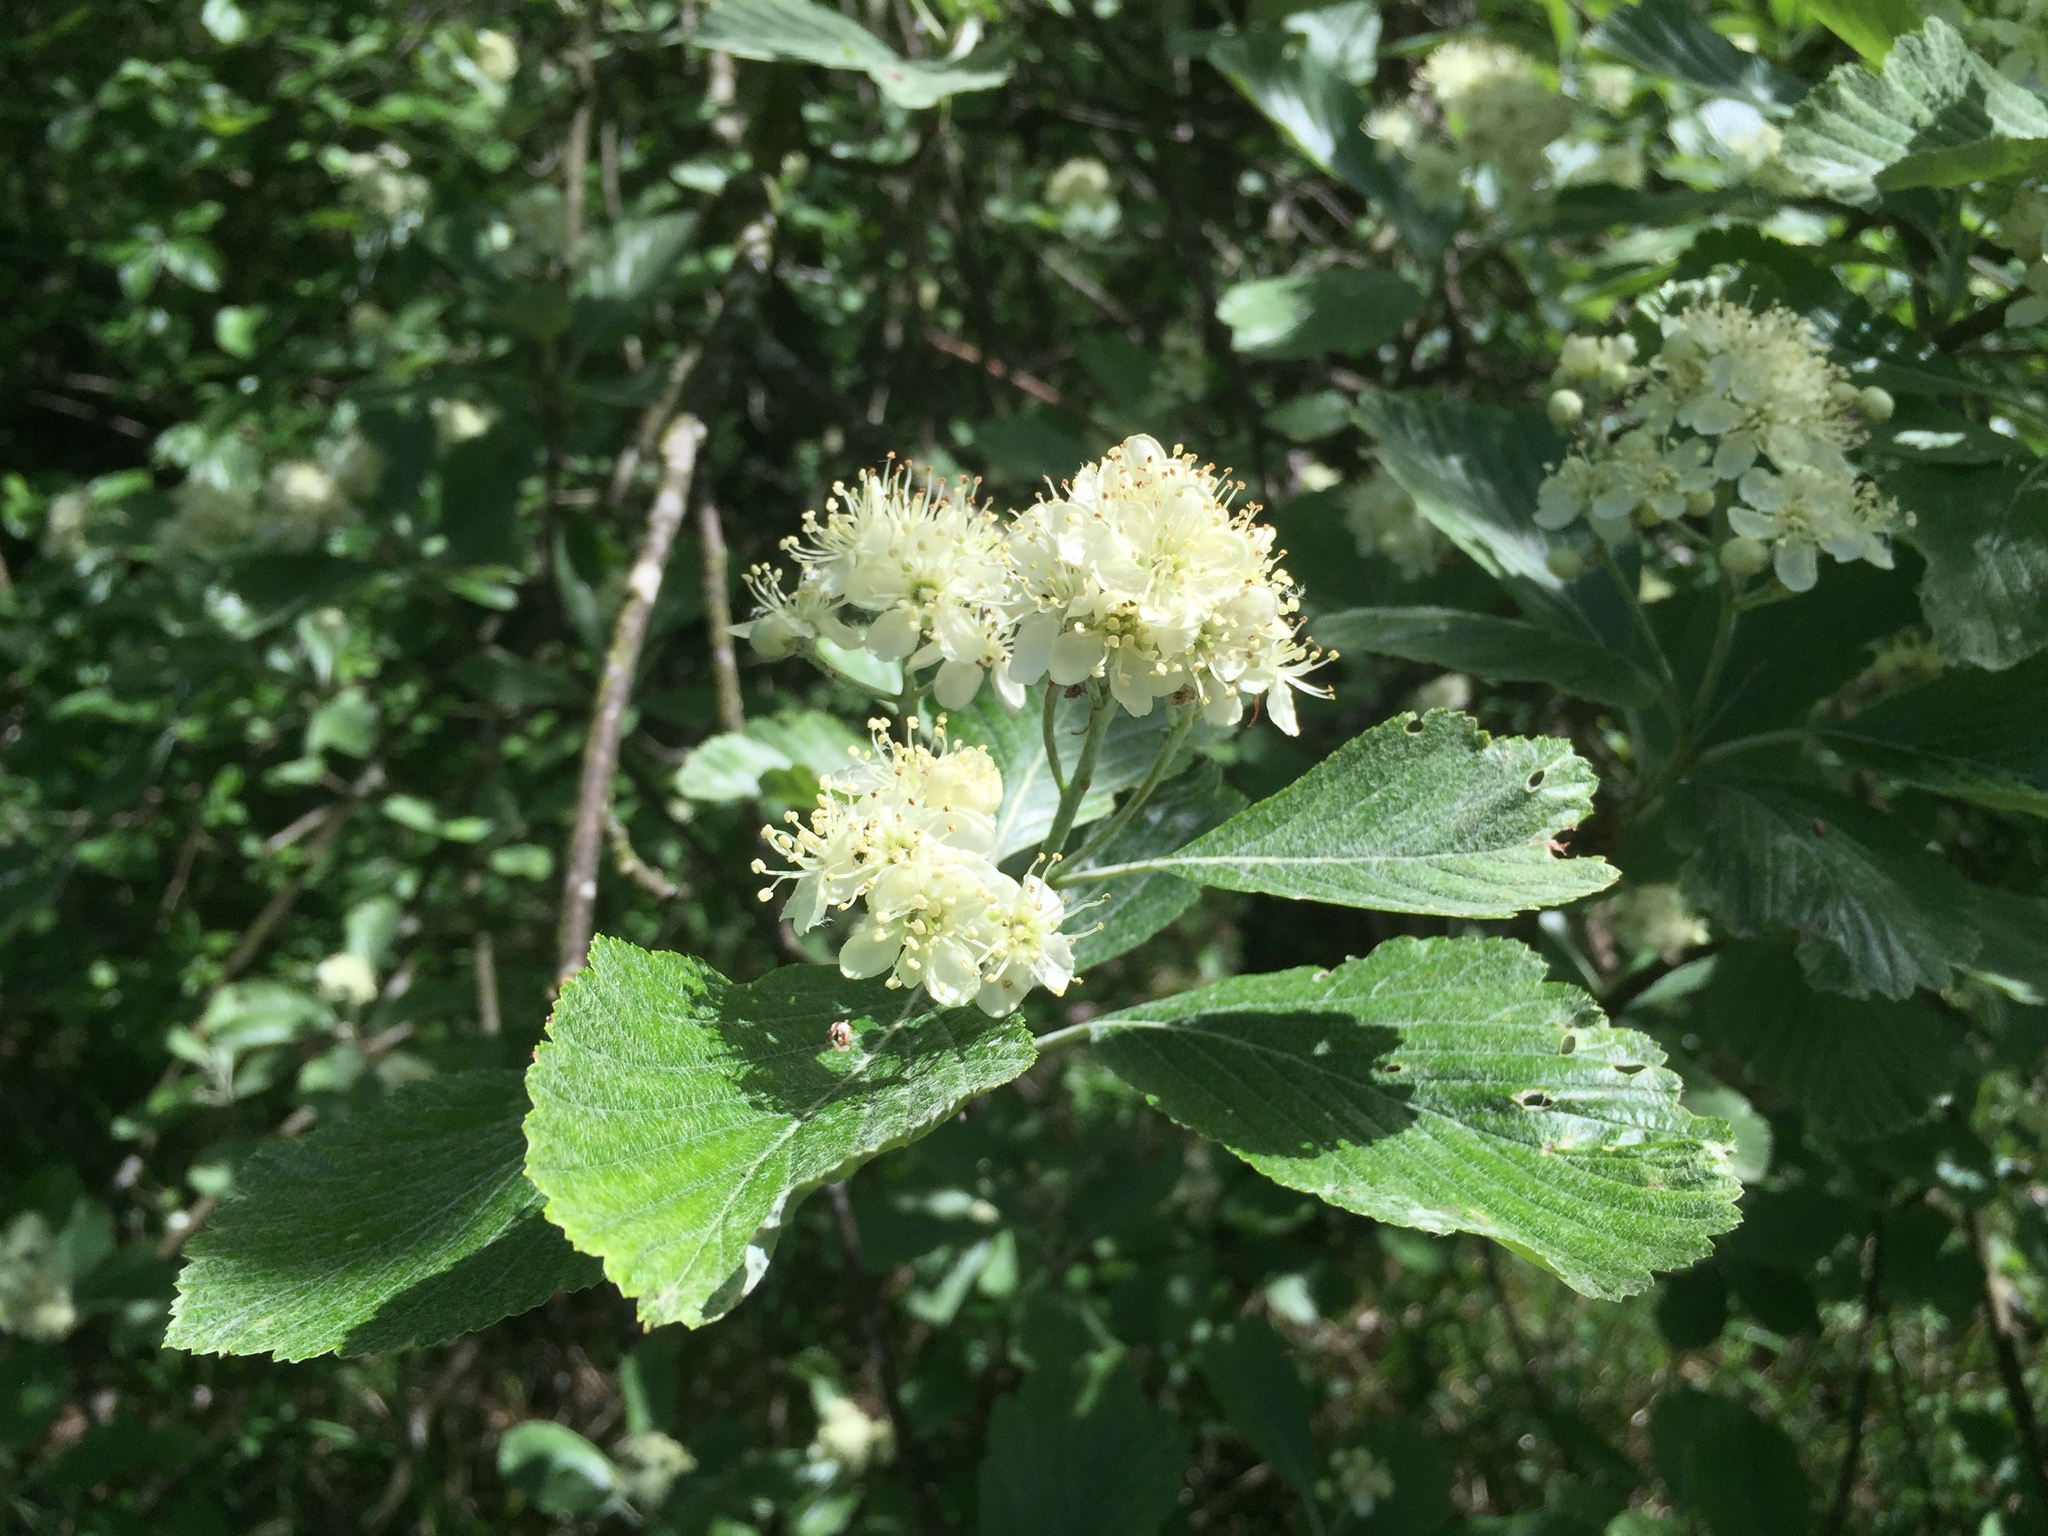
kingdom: Plantae
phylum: Tracheophyta
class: Magnoliopsida
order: Rosales
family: Rosaceae
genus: Aria
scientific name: Aria edulis
